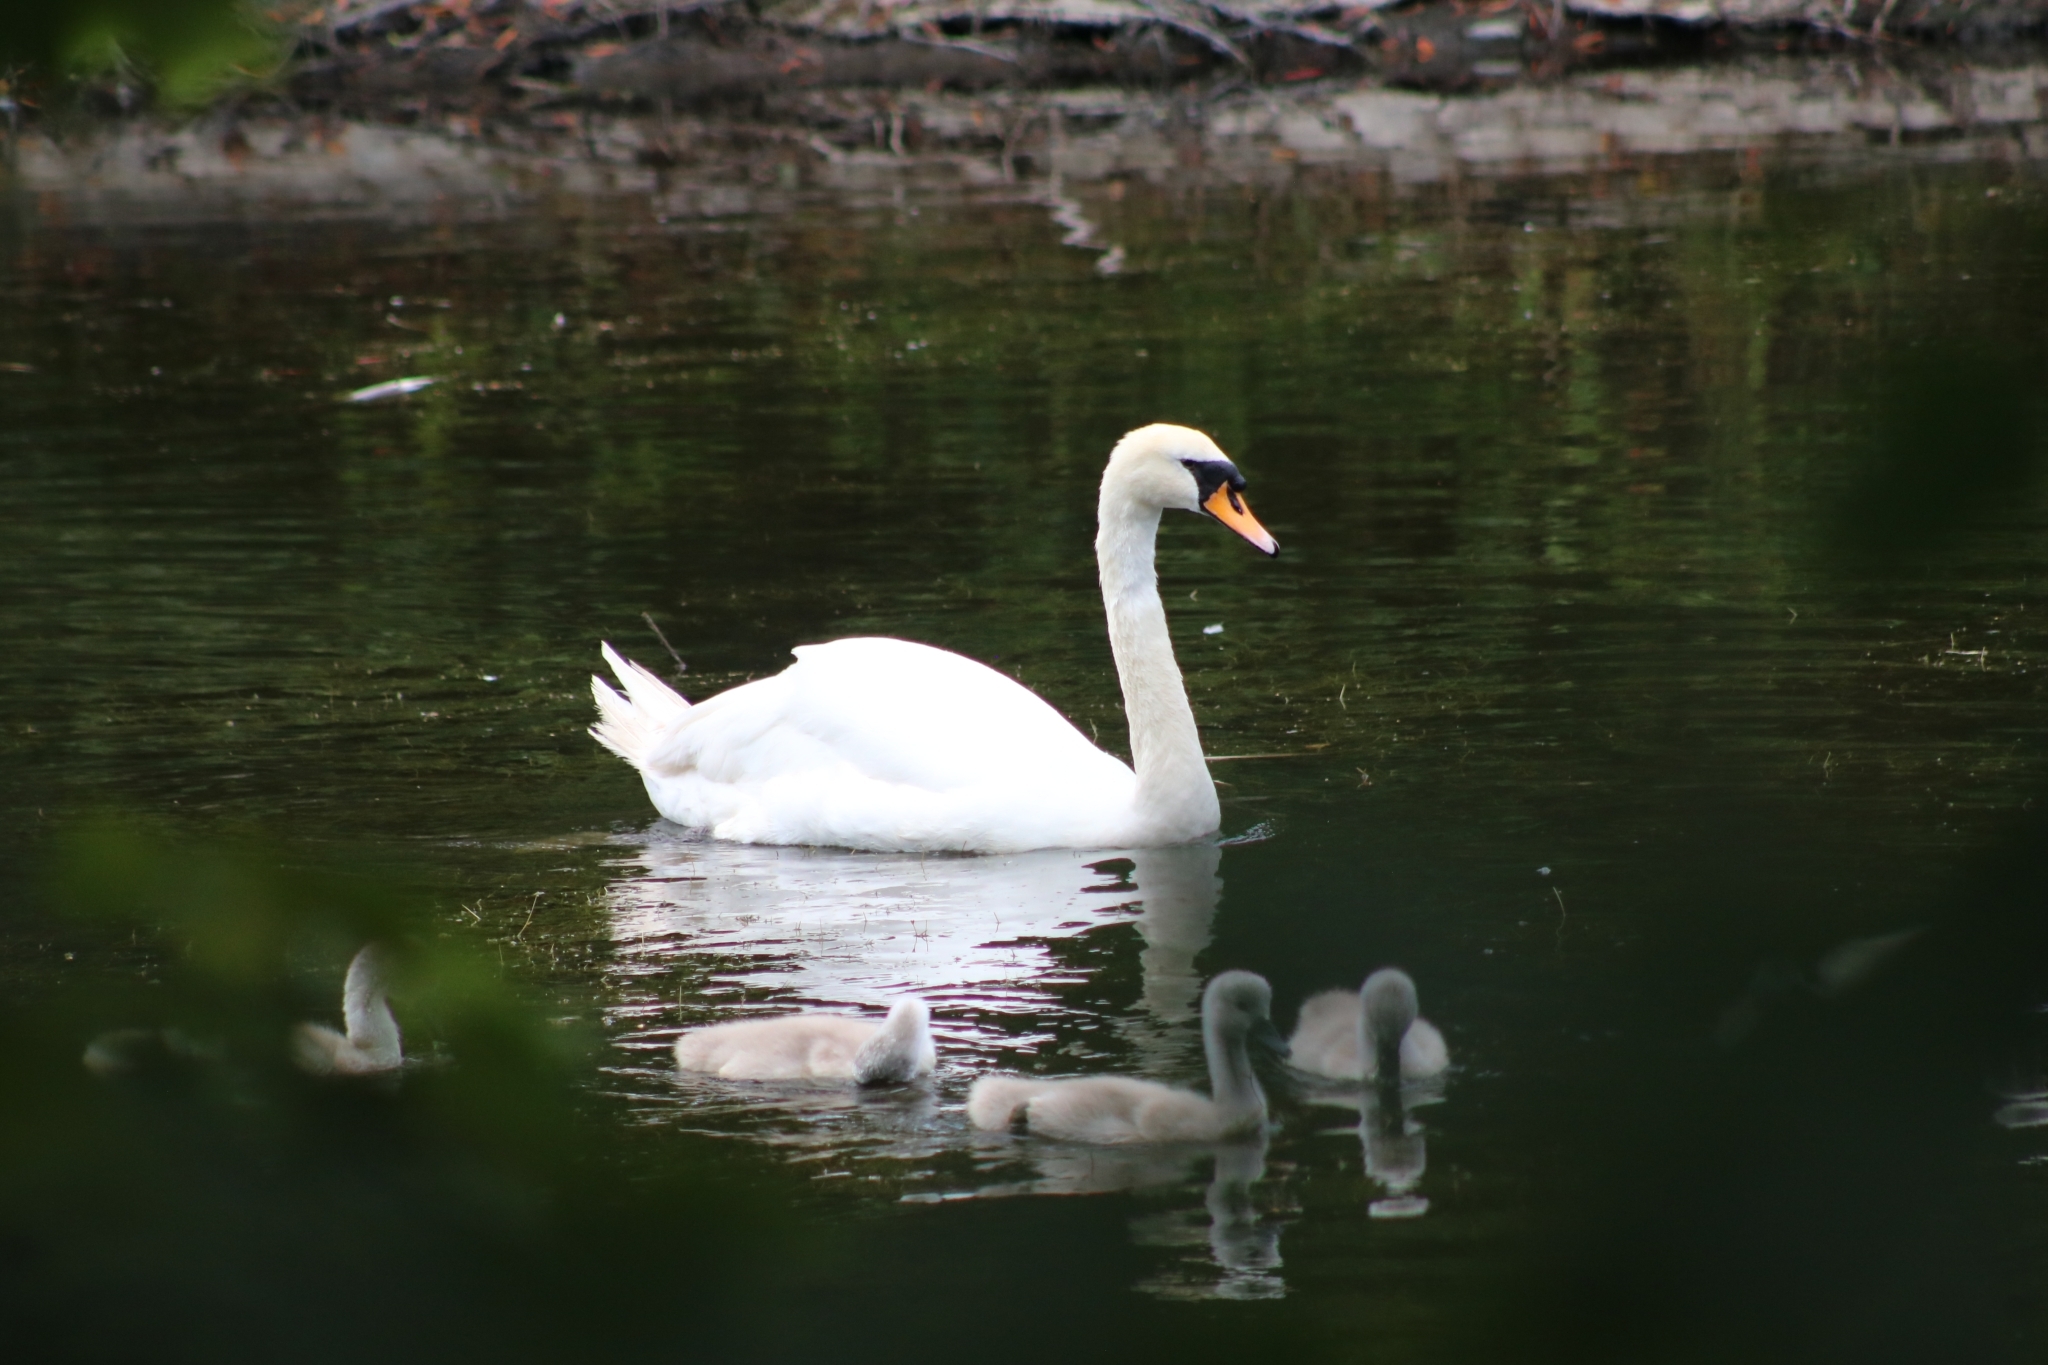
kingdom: Animalia
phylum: Chordata
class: Aves
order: Anseriformes
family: Anatidae
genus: Cygnus
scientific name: Cygnus olor
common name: Mute swan
